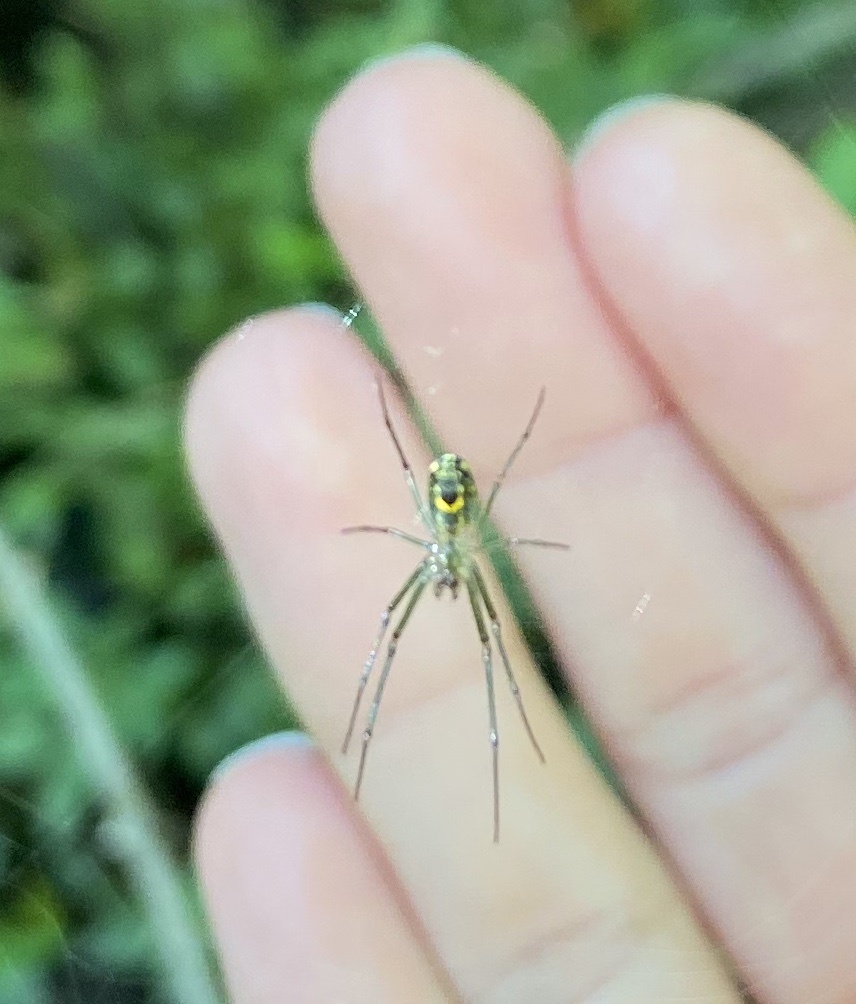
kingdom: Animalia
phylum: Arthropoda
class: Arachnida
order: Araneae
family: Tetragnathidae
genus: Leucauge
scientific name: Leucauge venusta
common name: Longjawed orb weavers
